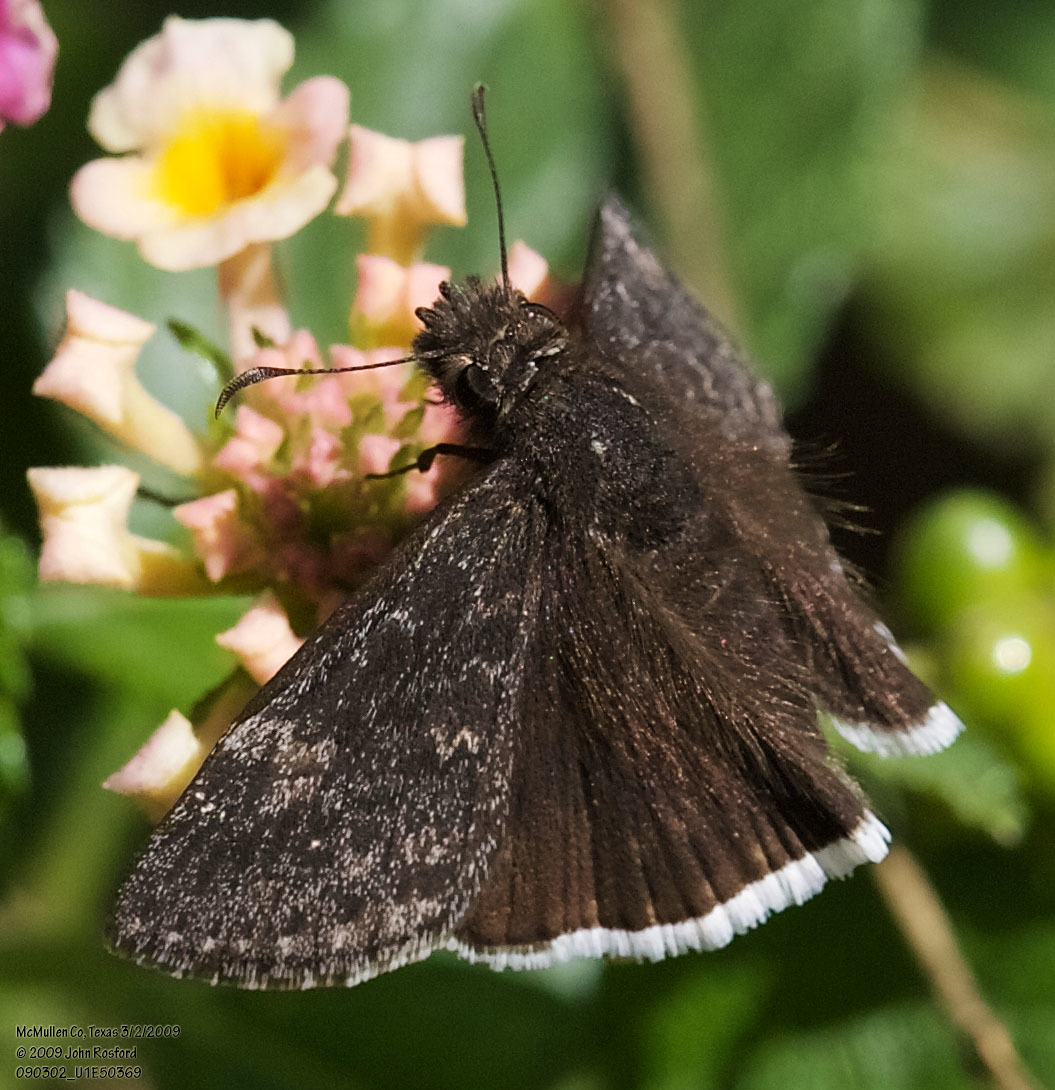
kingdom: Animalia
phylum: Arthropoda
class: Insecta
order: Lepidoptera
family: Hesperiidae
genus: Erynnis
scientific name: Erynnis funeralis
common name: Funereal duskywing
